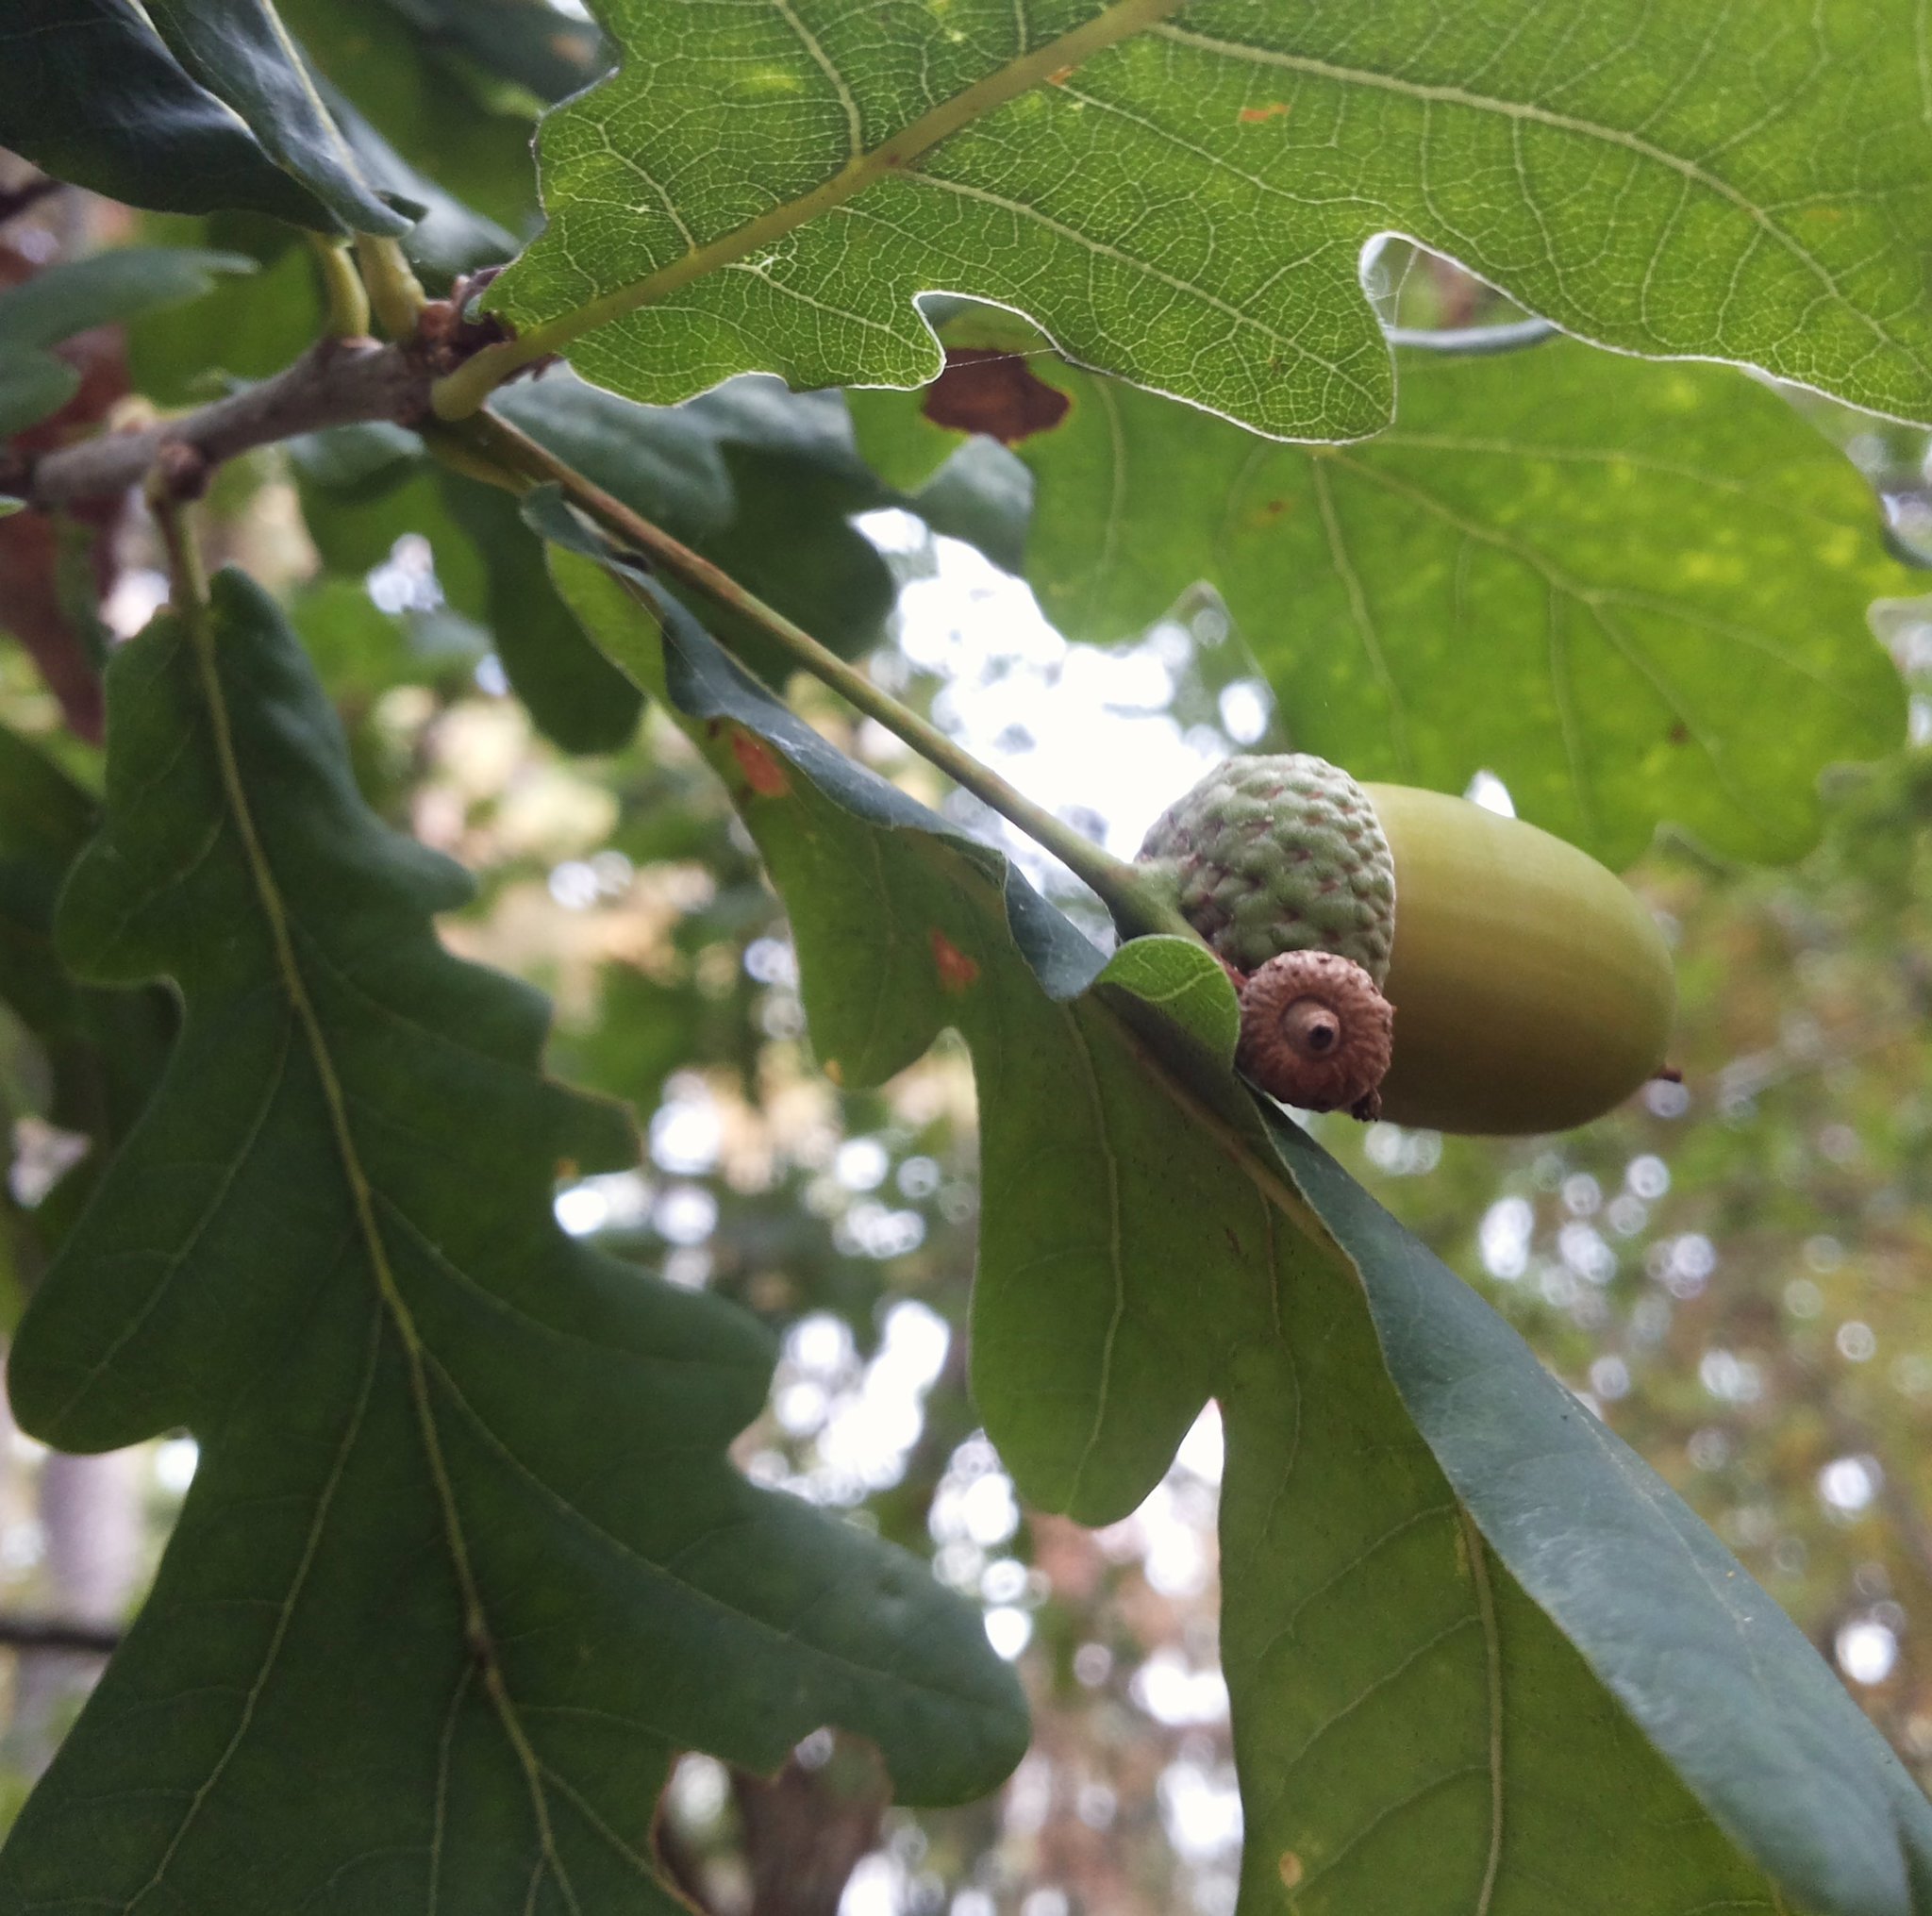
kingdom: Plantae
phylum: Tracheophyta
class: Magnoliopsida
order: Fagales
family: Fagaceae
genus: Quercus
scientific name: Quercus robur
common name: Pedunculate oak
